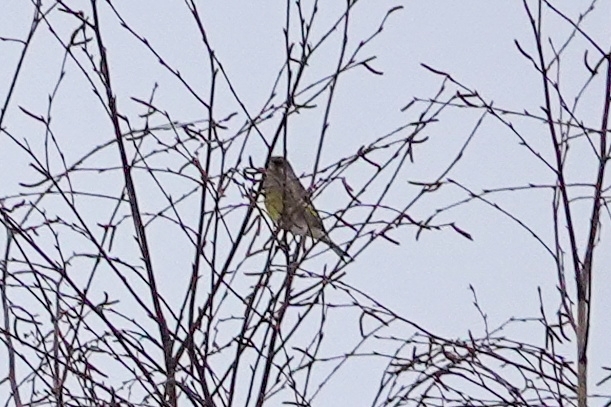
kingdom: Plantae
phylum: Tracheophyta
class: Liliopsida
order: Poales
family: Poaceae
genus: Chloris
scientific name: Chloris chloris
